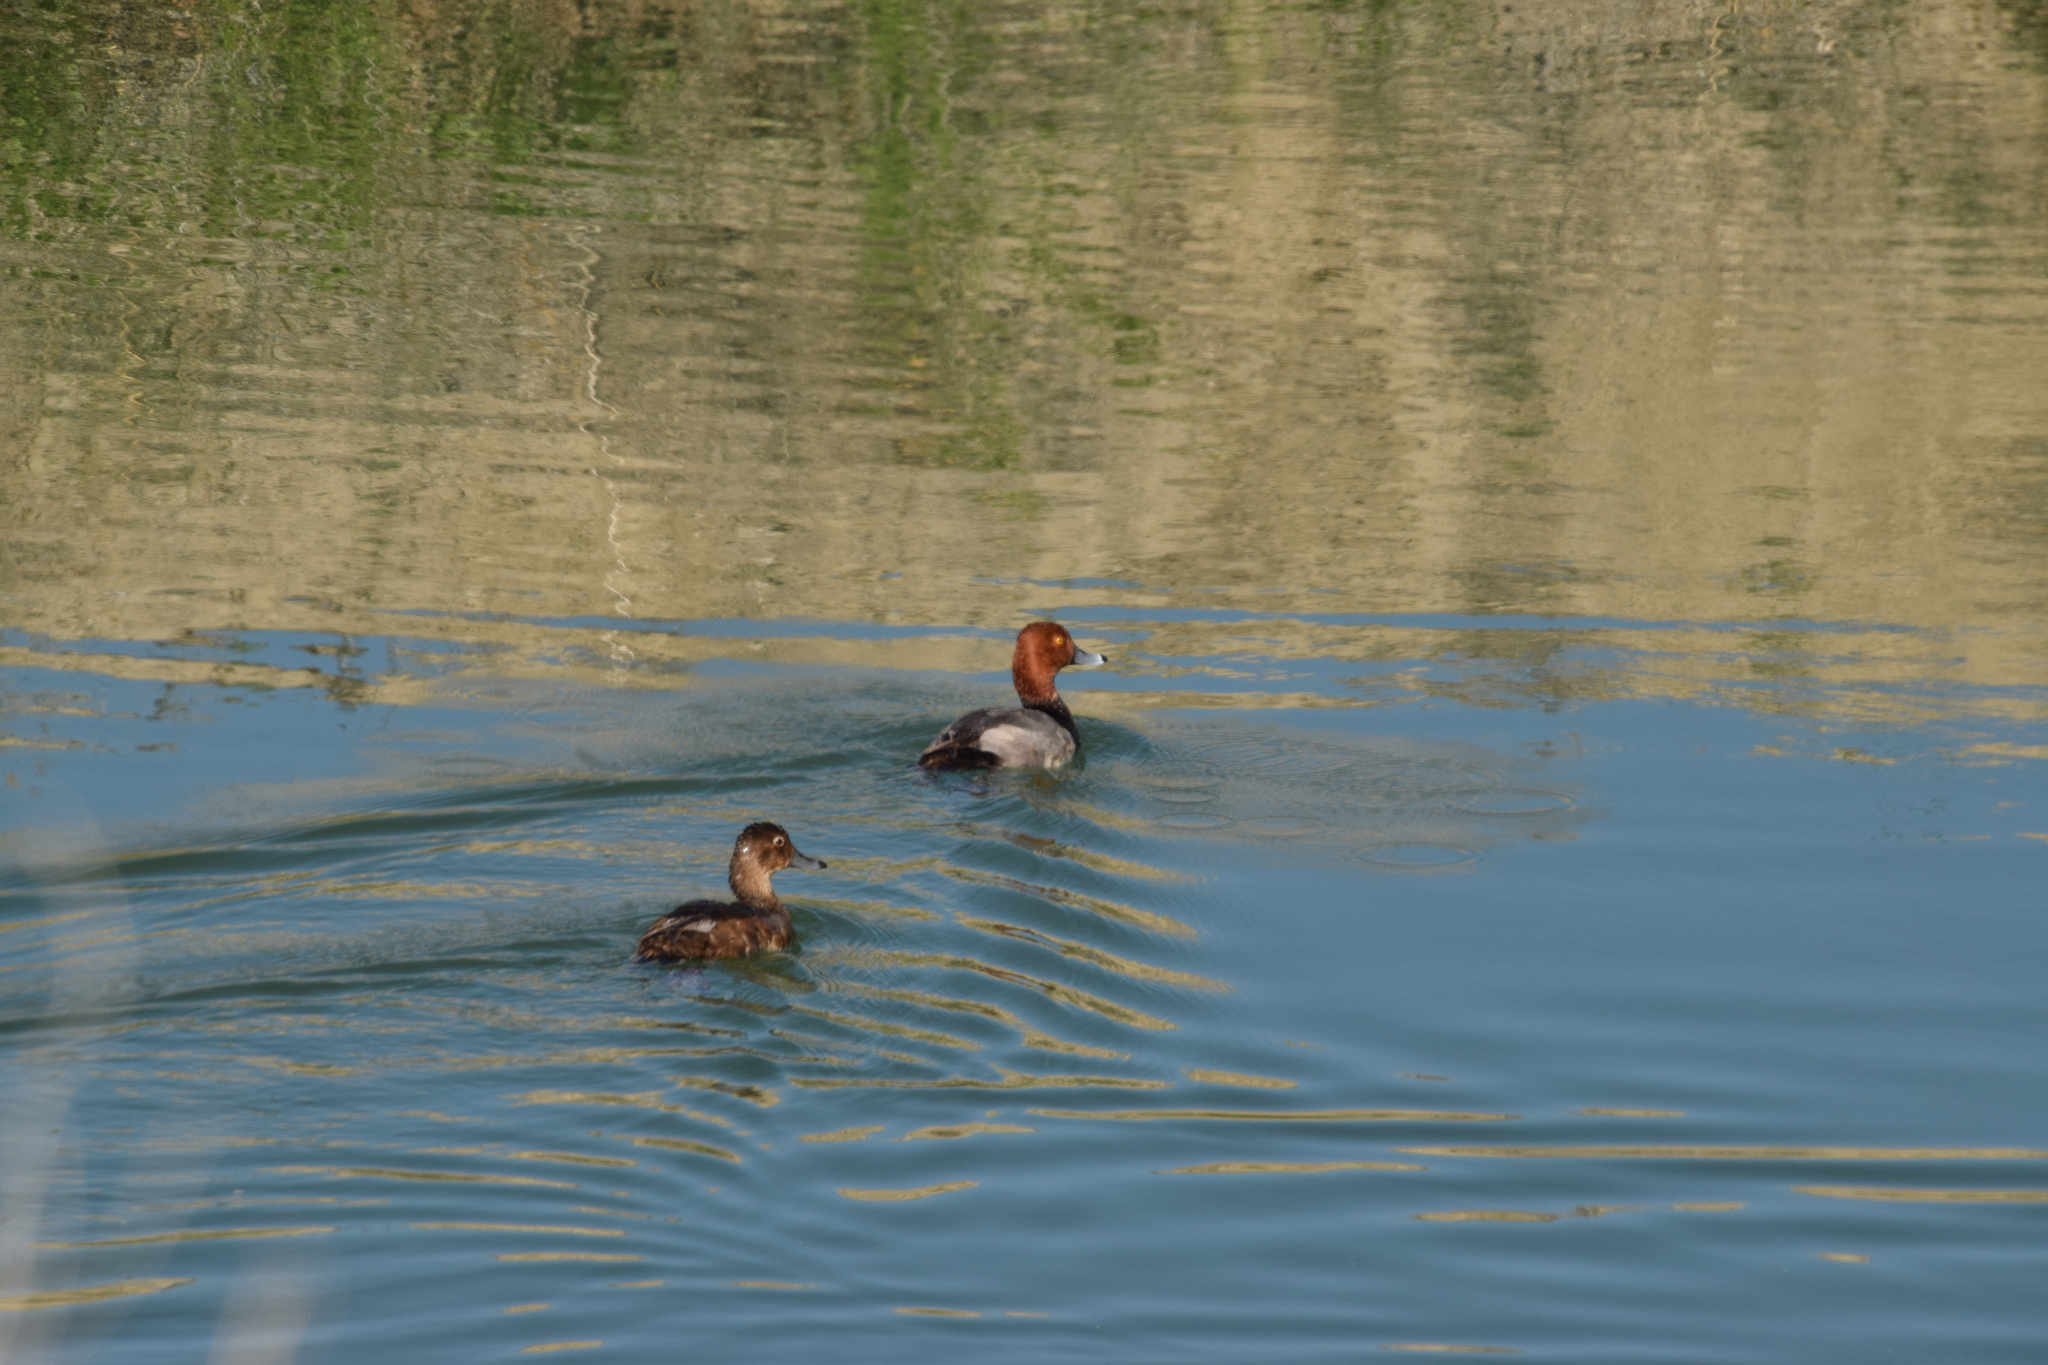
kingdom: Animalia
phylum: Chordata
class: Aves
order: Anseriformes
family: Anatidae
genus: Aythya
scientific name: Aythya americana
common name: Redhead
